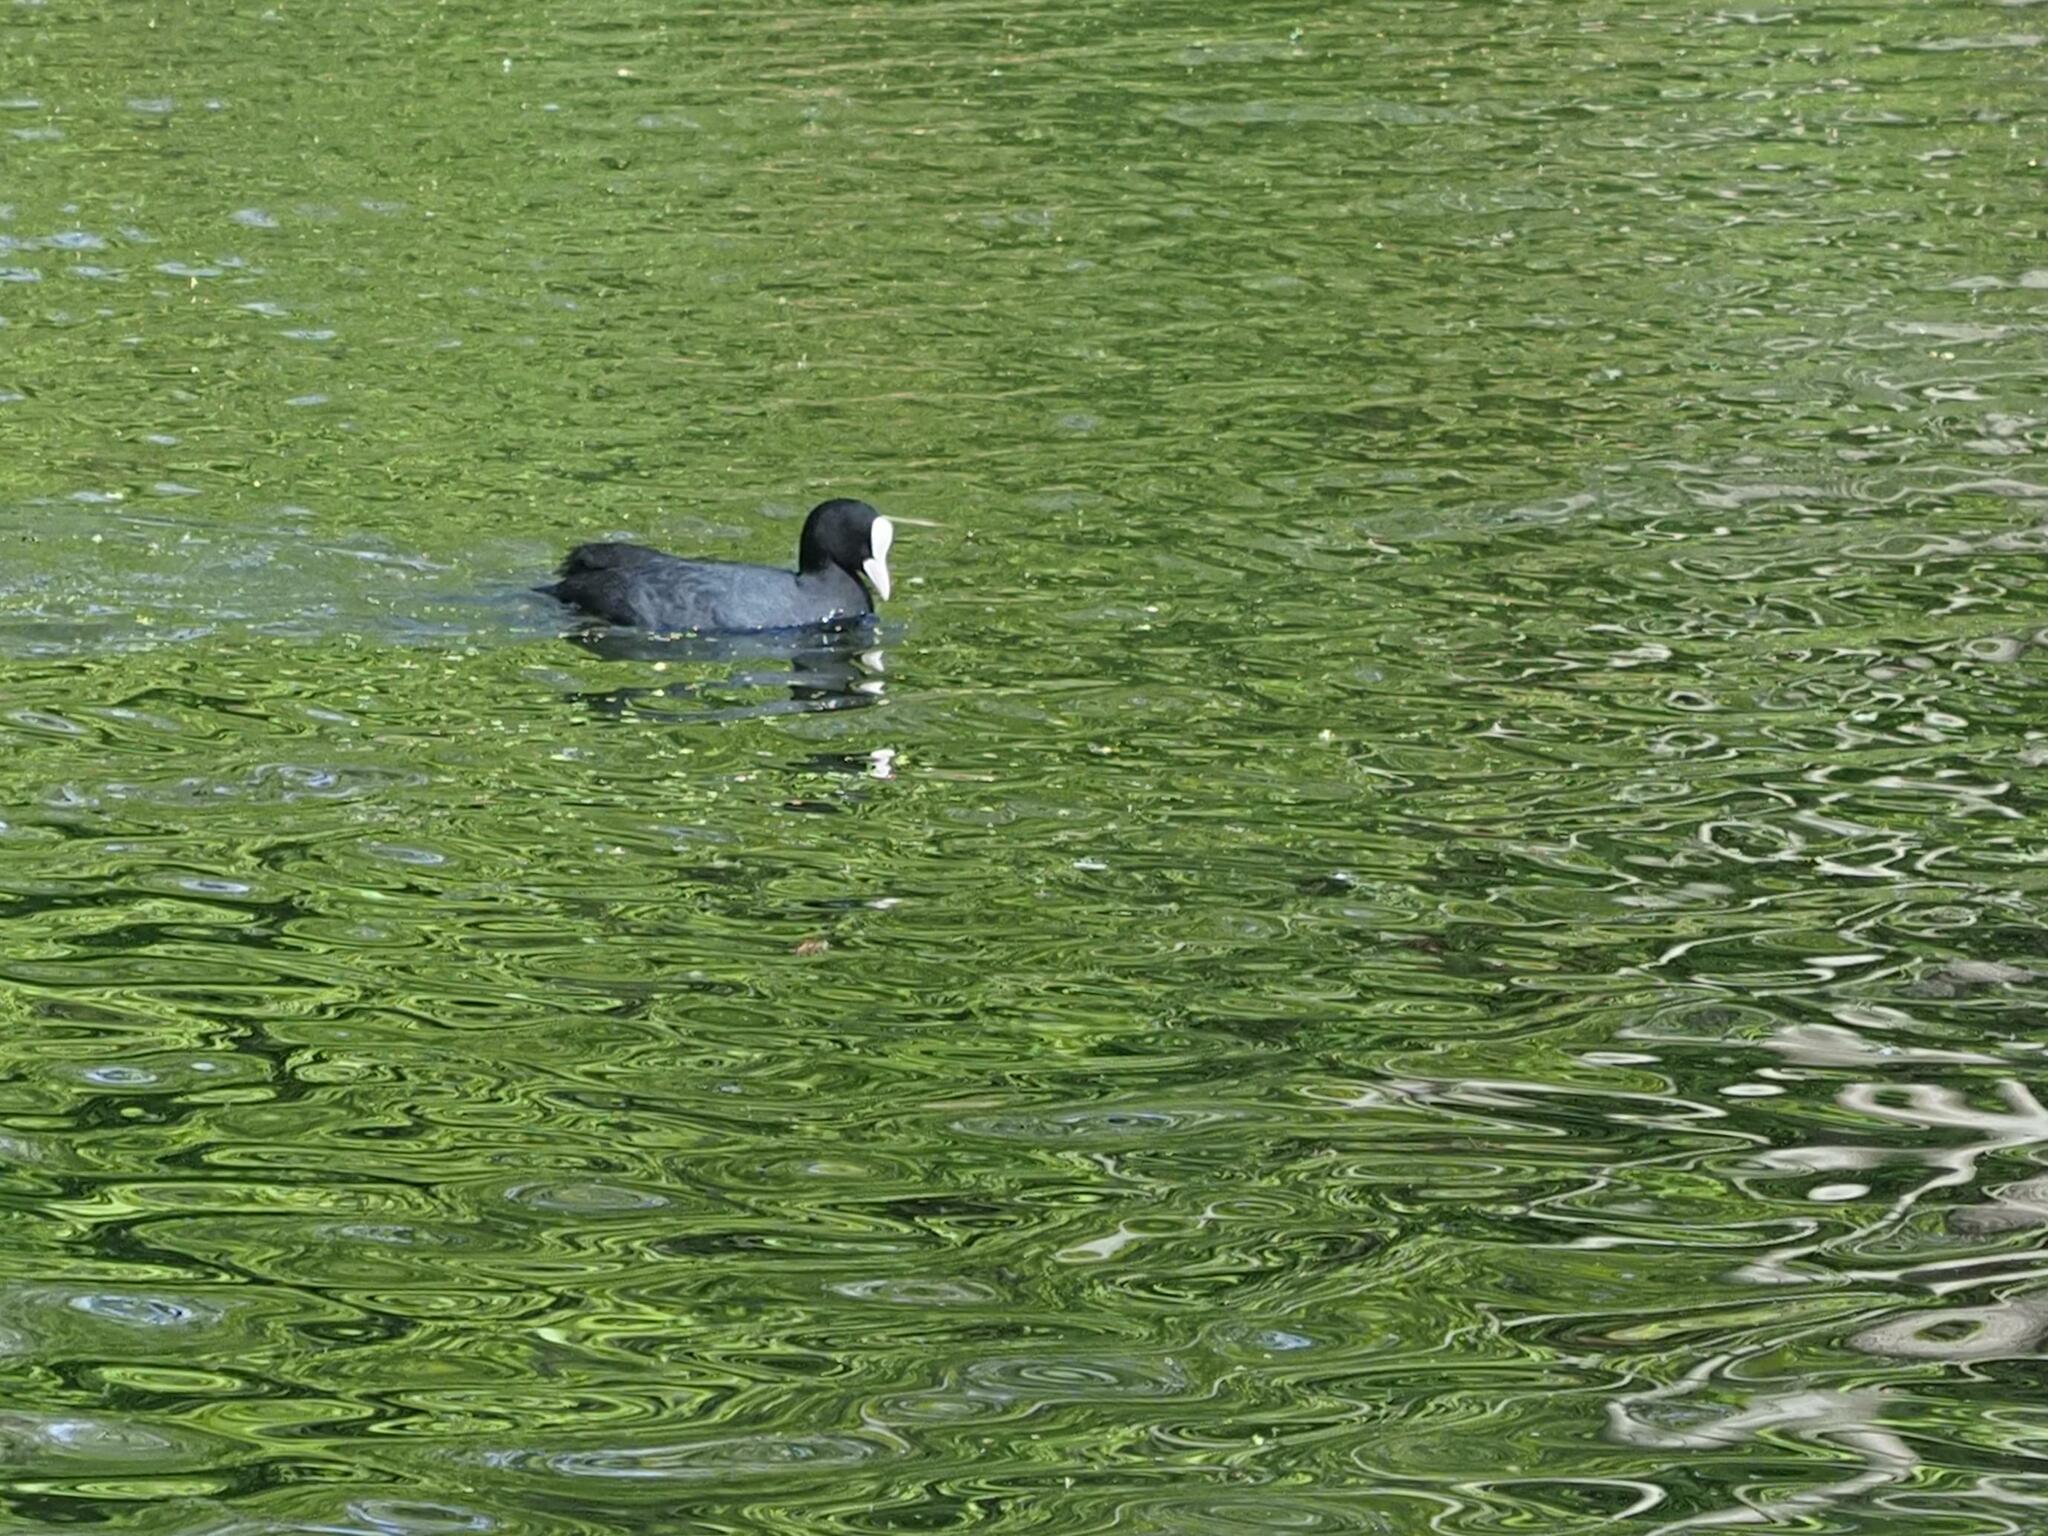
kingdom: Animalia
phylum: Chordata
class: Aves
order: Gruiformes
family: Rallidae
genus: Fulica
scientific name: Fulica atra
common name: Eurasian coot
